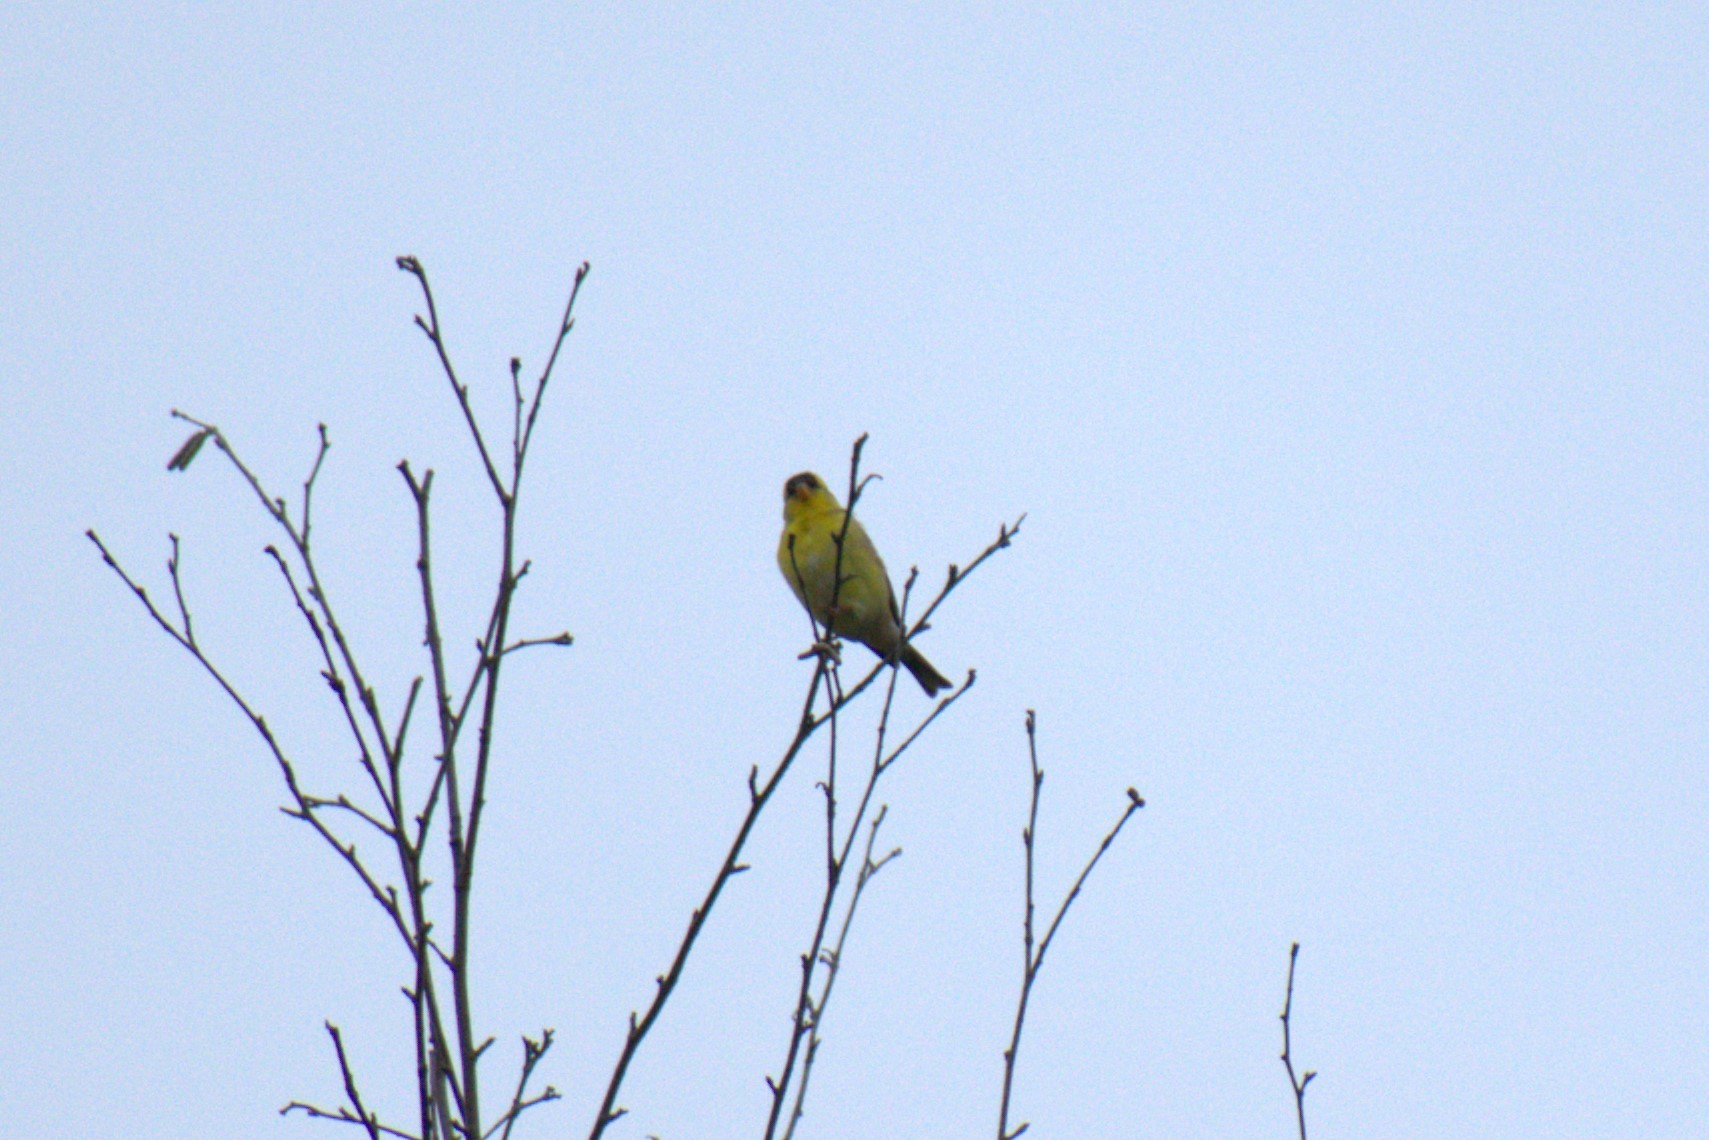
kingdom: Animalia
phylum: Chordata
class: Aves
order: Passeriformes
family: Fringillidae
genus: Spinus
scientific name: Spinus tristis
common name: American goldfinch
